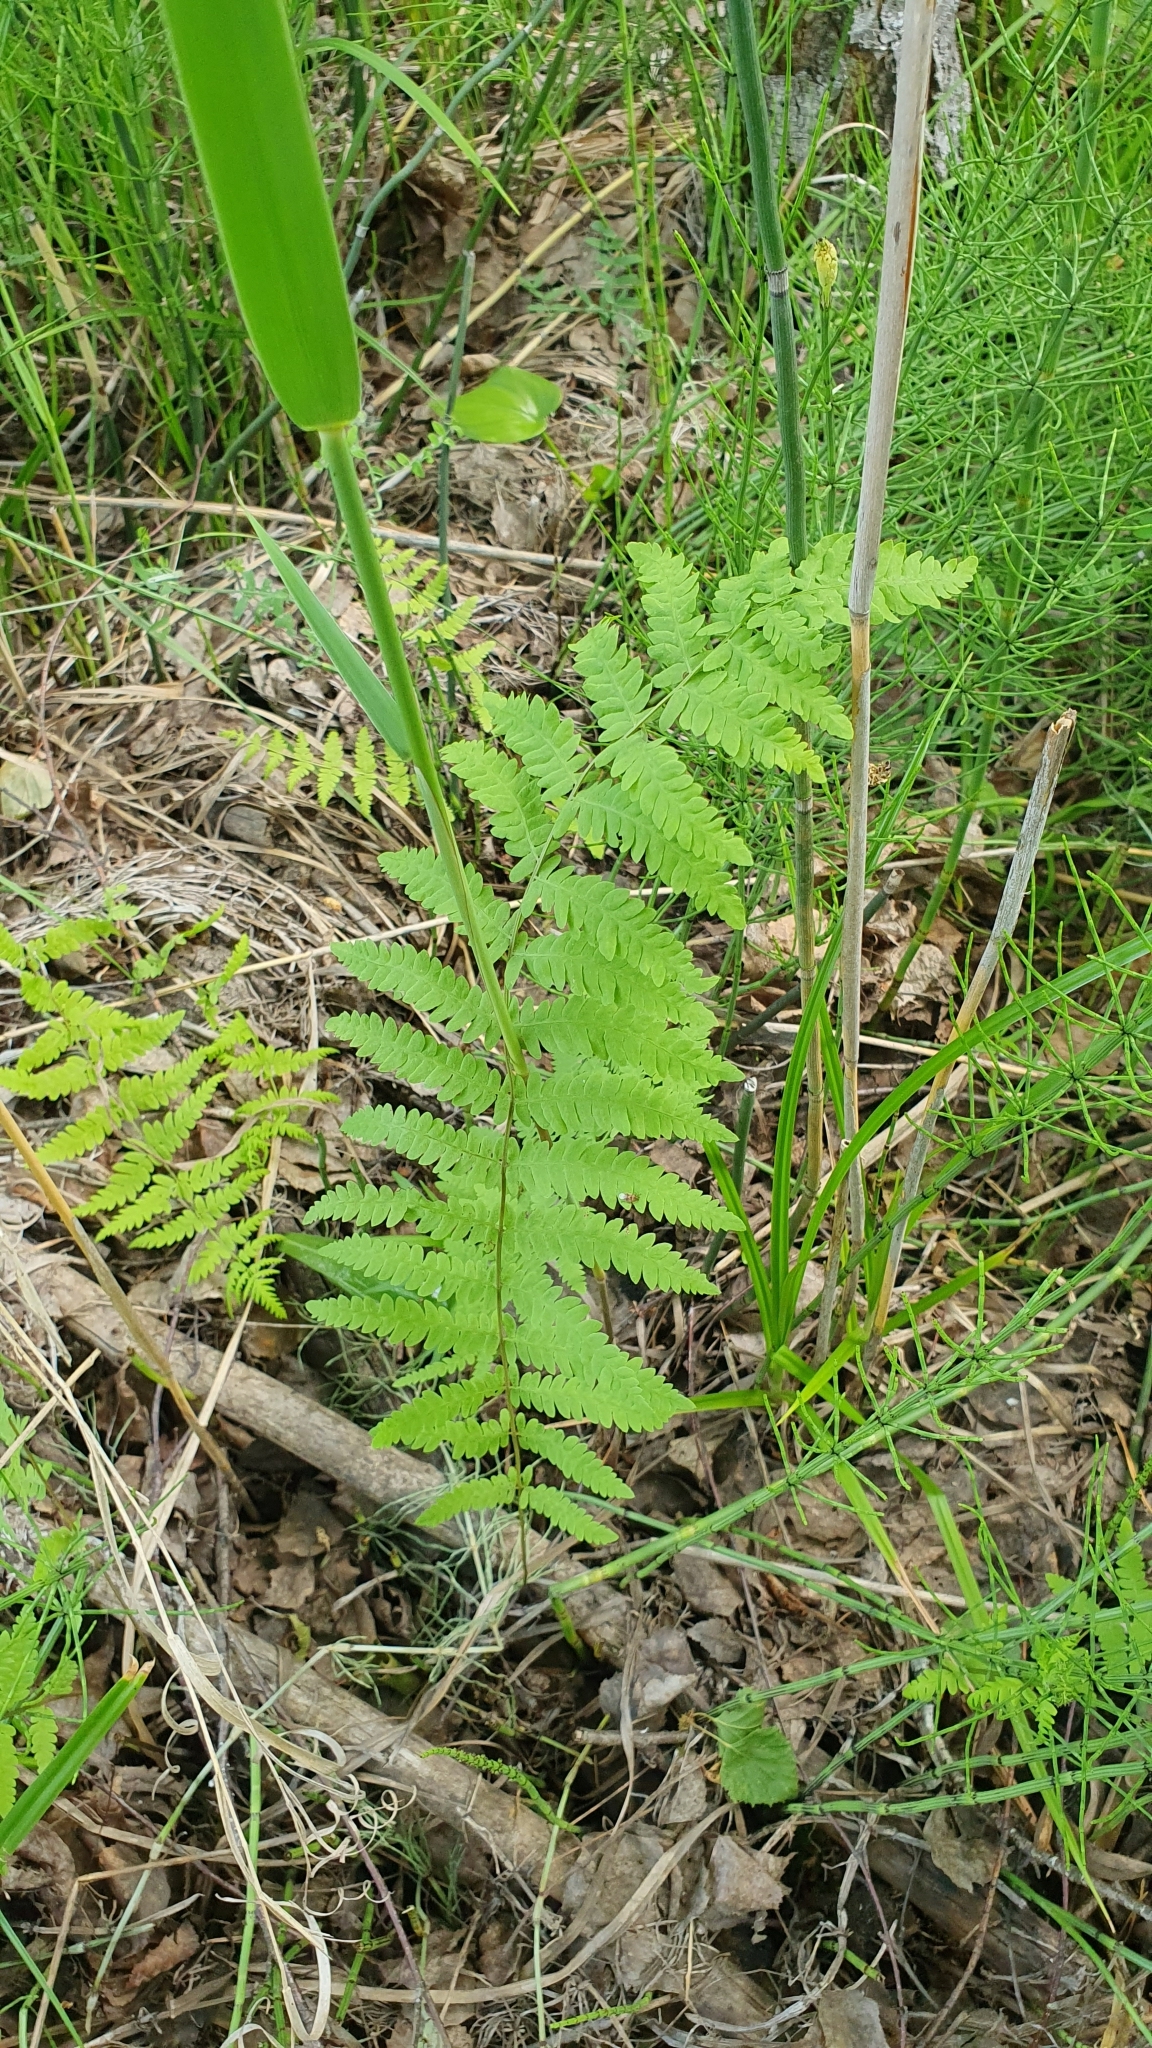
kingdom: Plantae
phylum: Tracheophyta
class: Polypodiopsida
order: Polypodiales
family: Thelypteridaceae
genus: Thelypteris
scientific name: Thelypteris palustris
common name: Marsh fern
